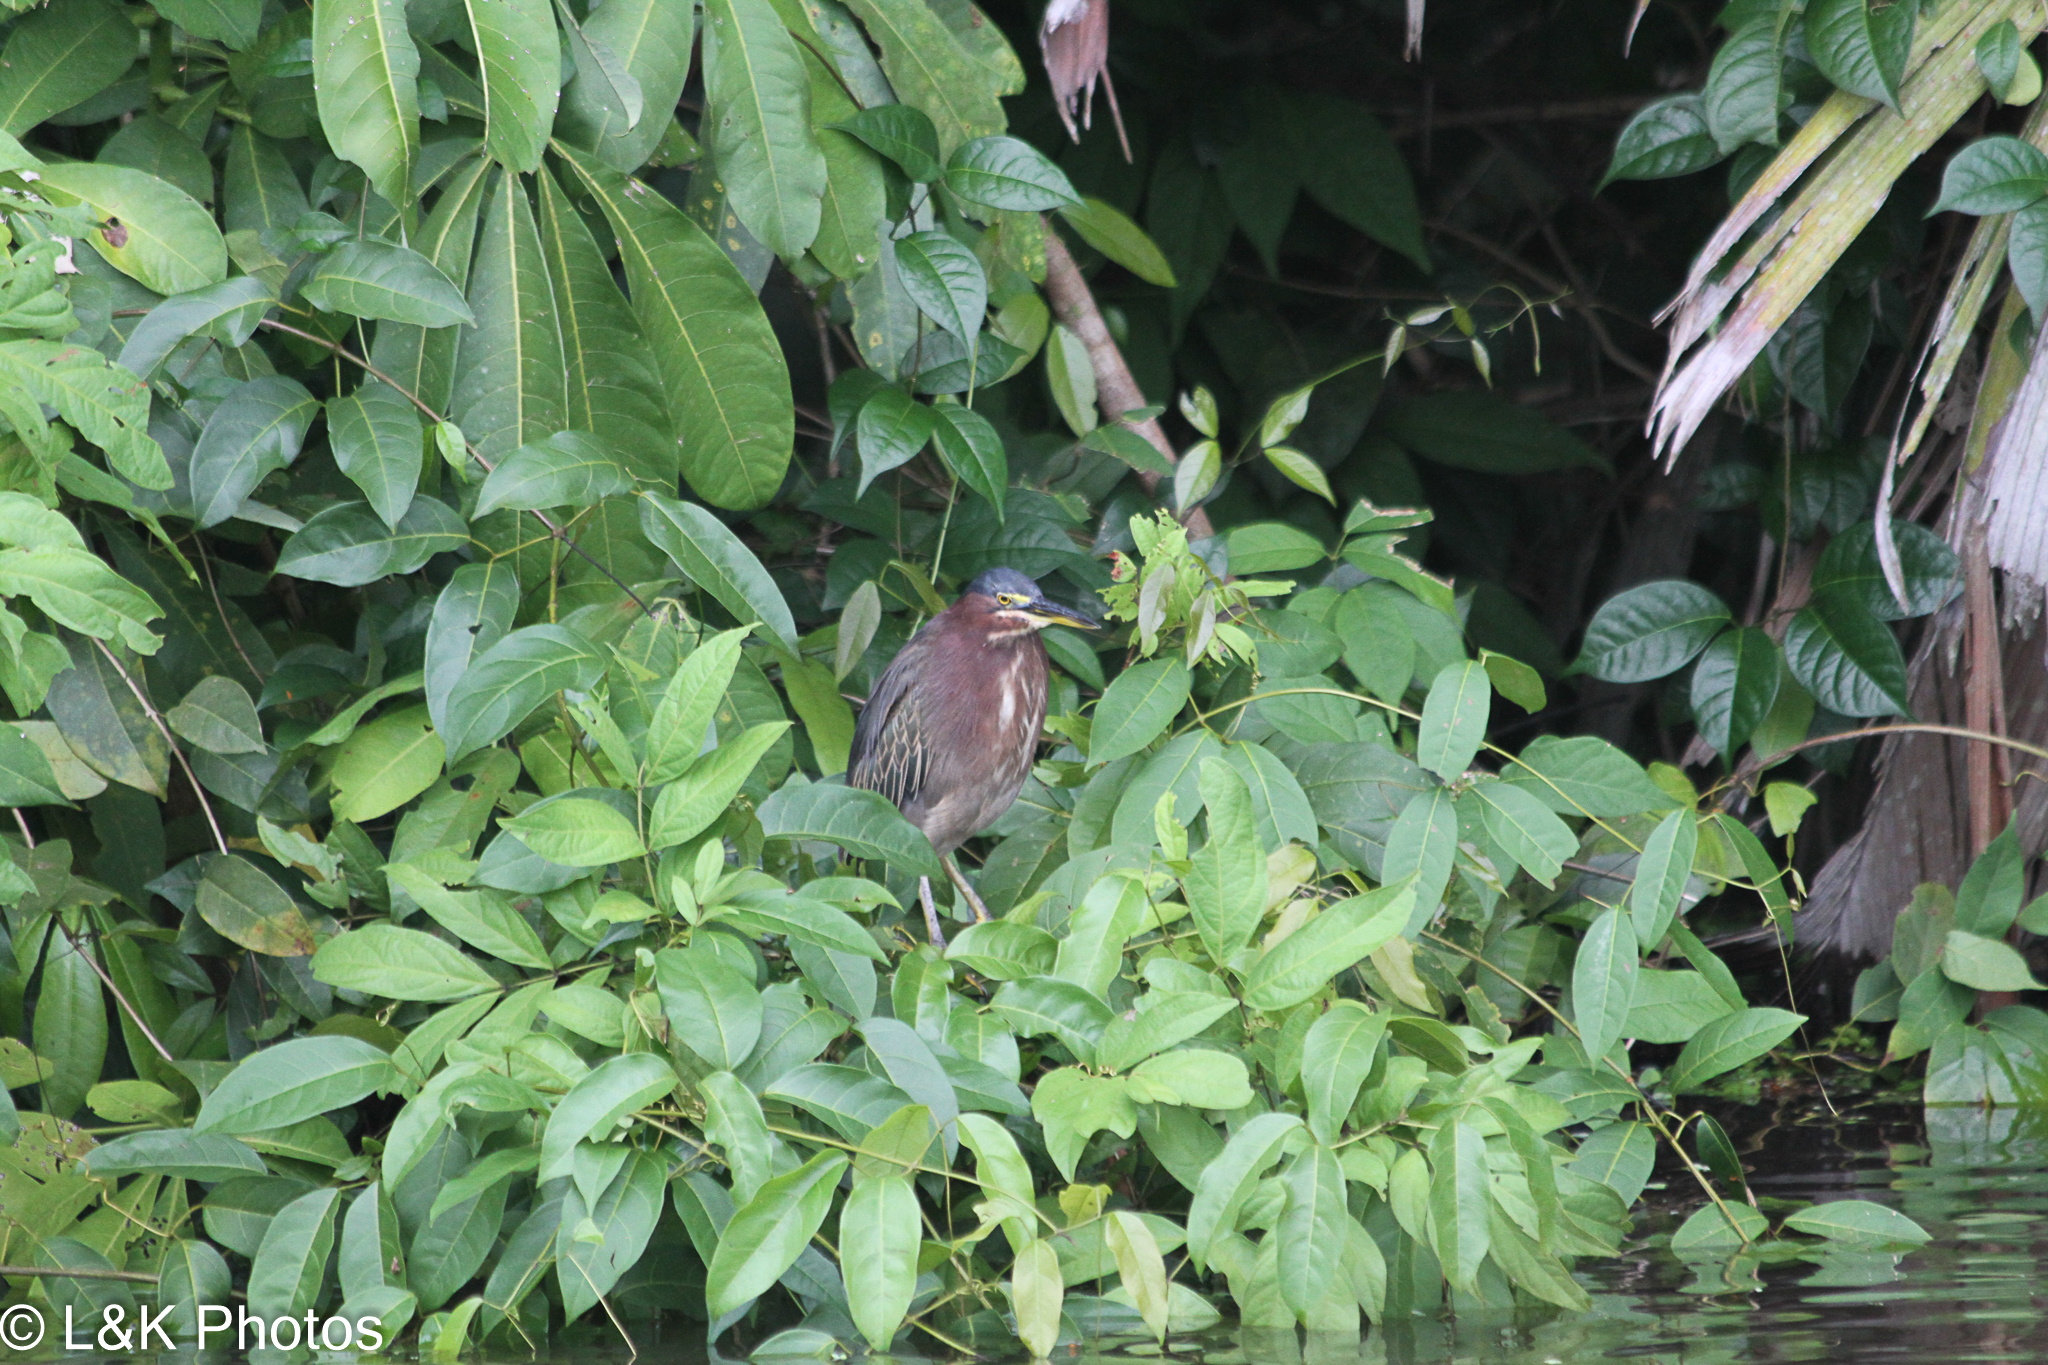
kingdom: Animalia
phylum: Chordata
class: Aves
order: Pelecaniformes
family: Ardeidae
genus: Butorides
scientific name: Butorides virescens
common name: Green heron
